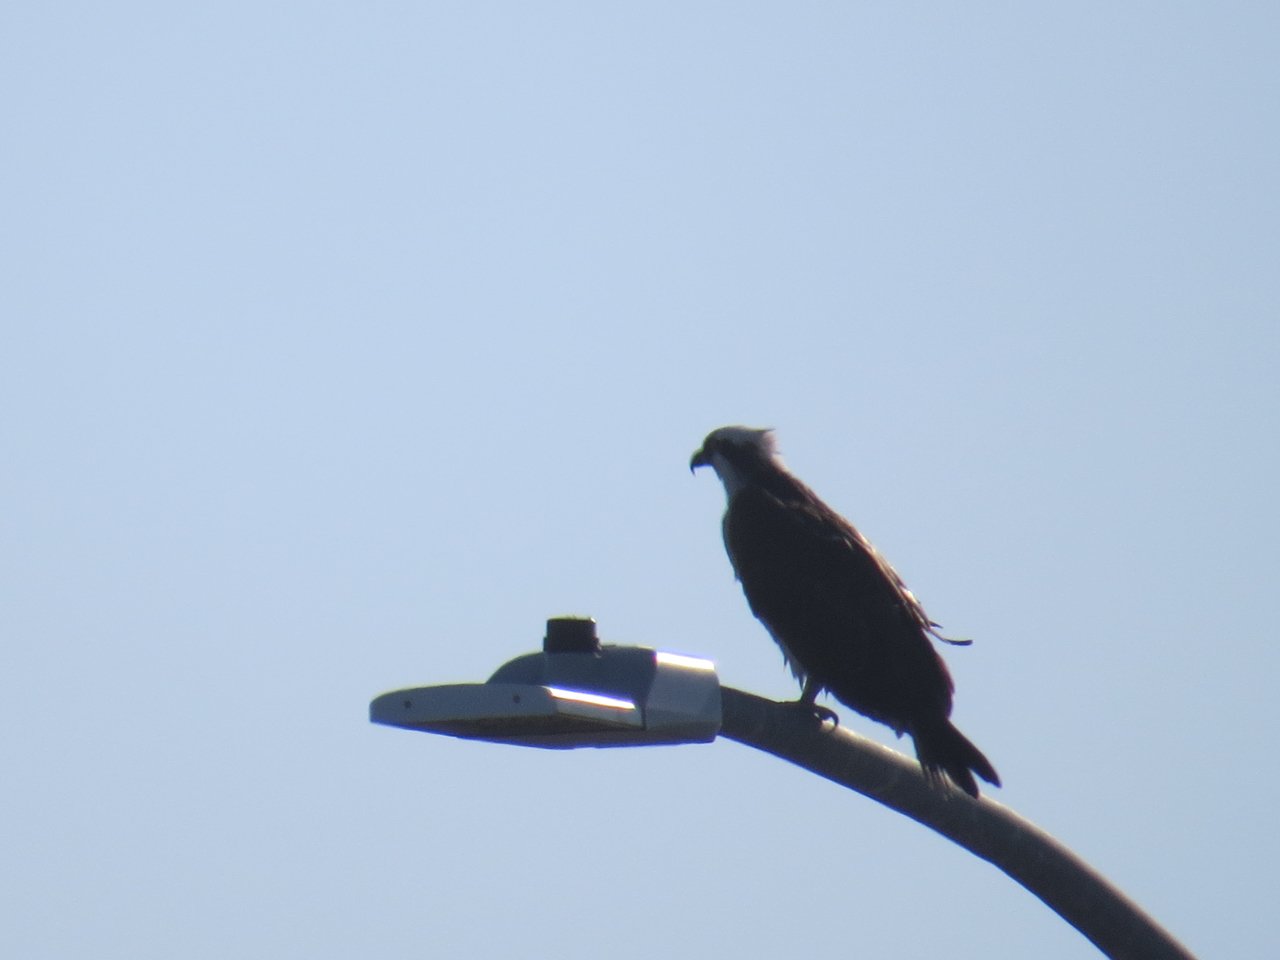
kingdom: Animalia
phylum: Chordata
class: Aves
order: Accipitriformes
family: Pandionidae
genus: Pandion
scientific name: Pandion haliaetus
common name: Osprey
